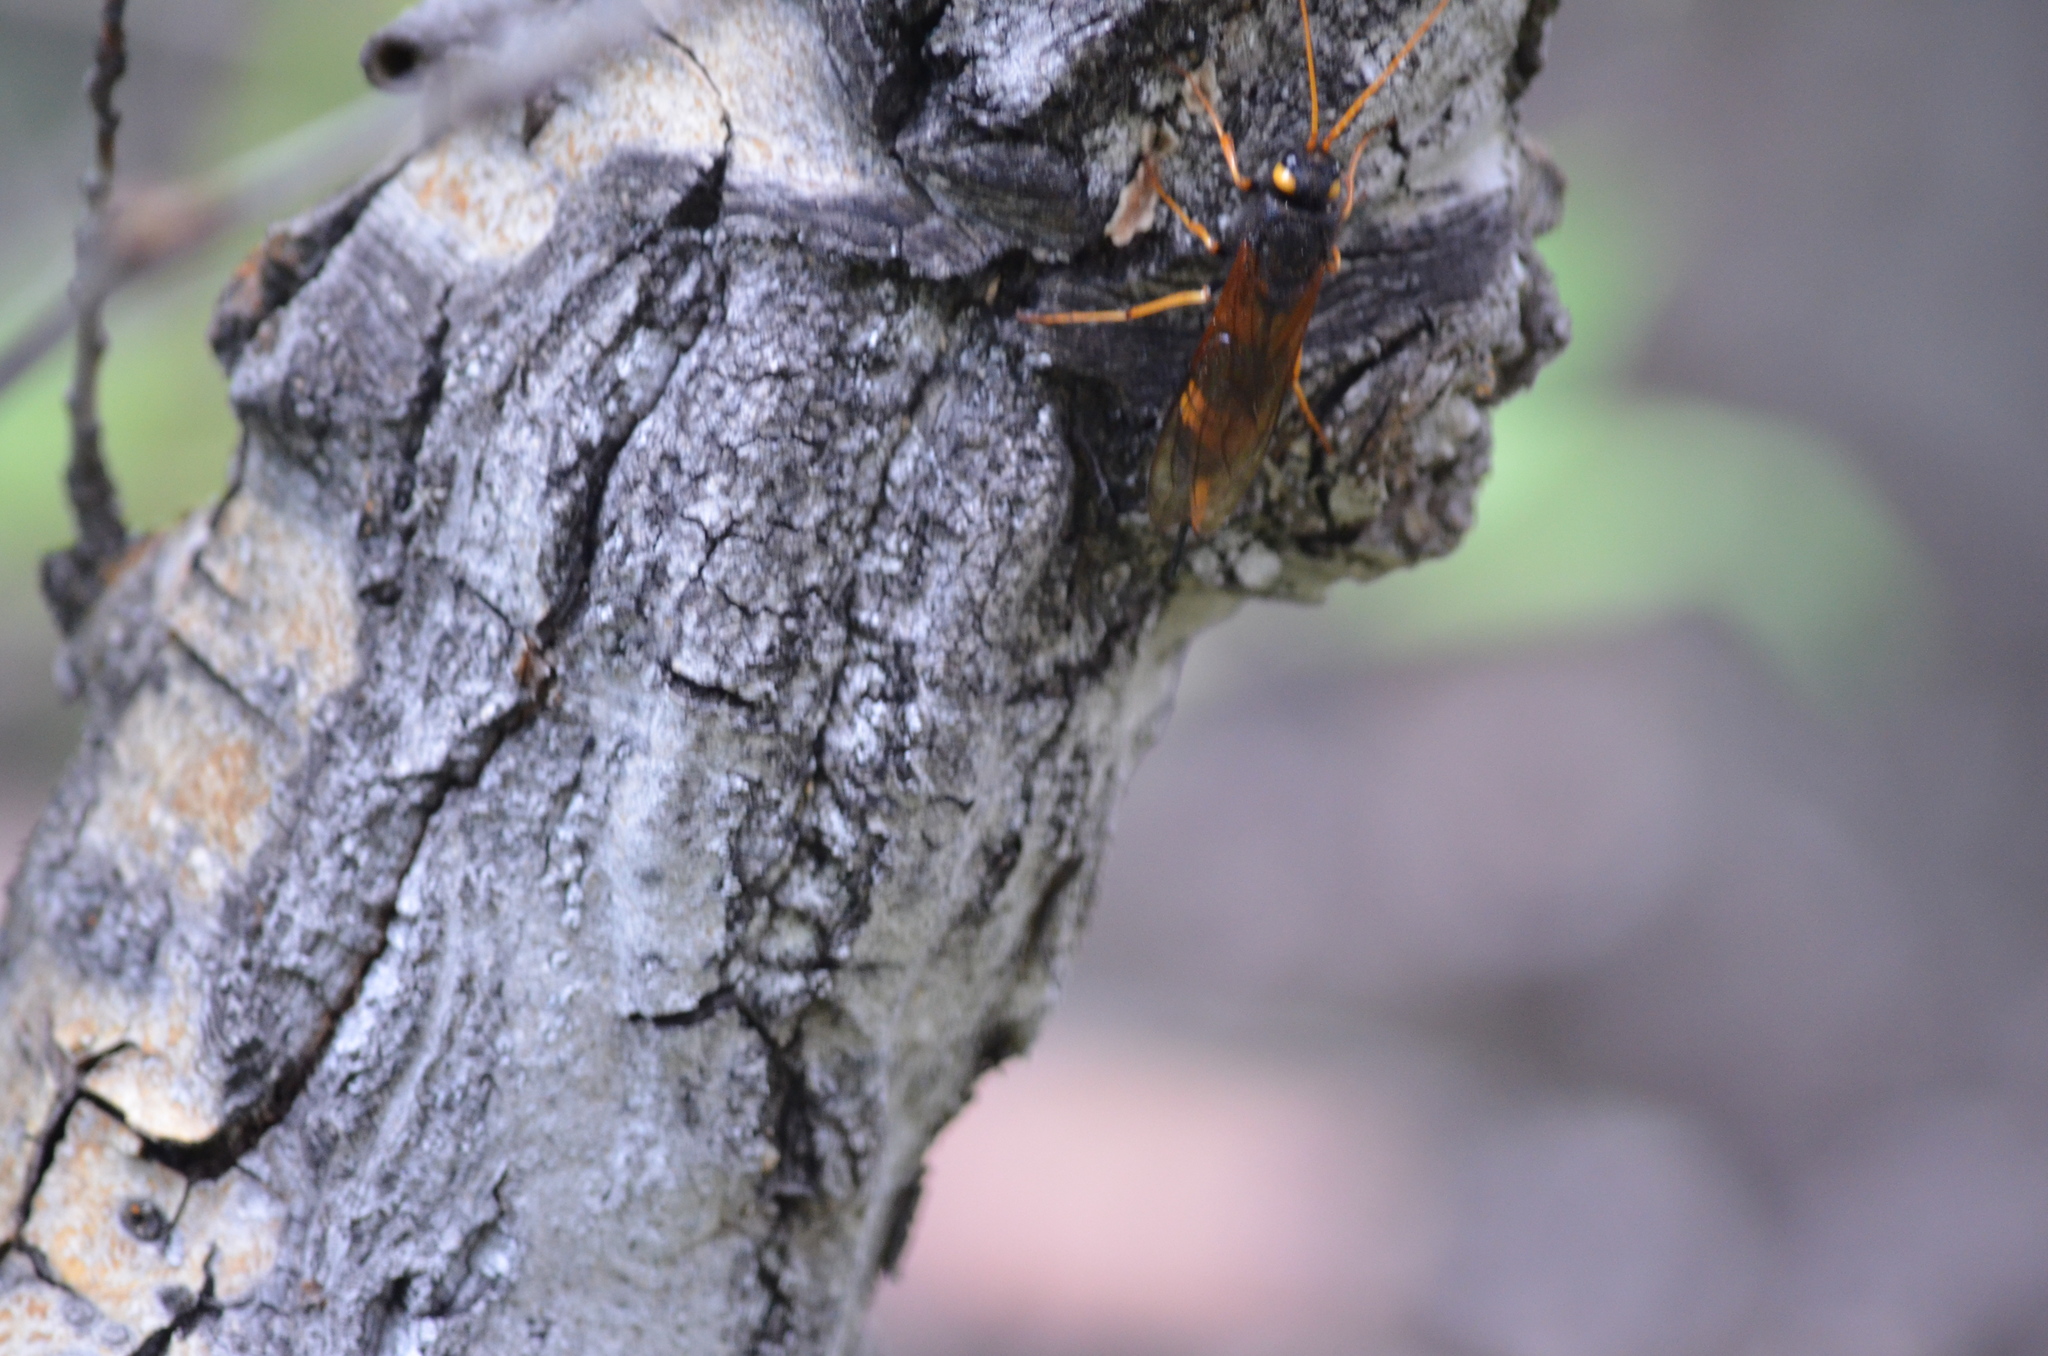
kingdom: Animalia
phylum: Arthropoda
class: Insecta
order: Hymenoptera
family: Siricidae
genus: Urocerus
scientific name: Urocerus flavicornis
